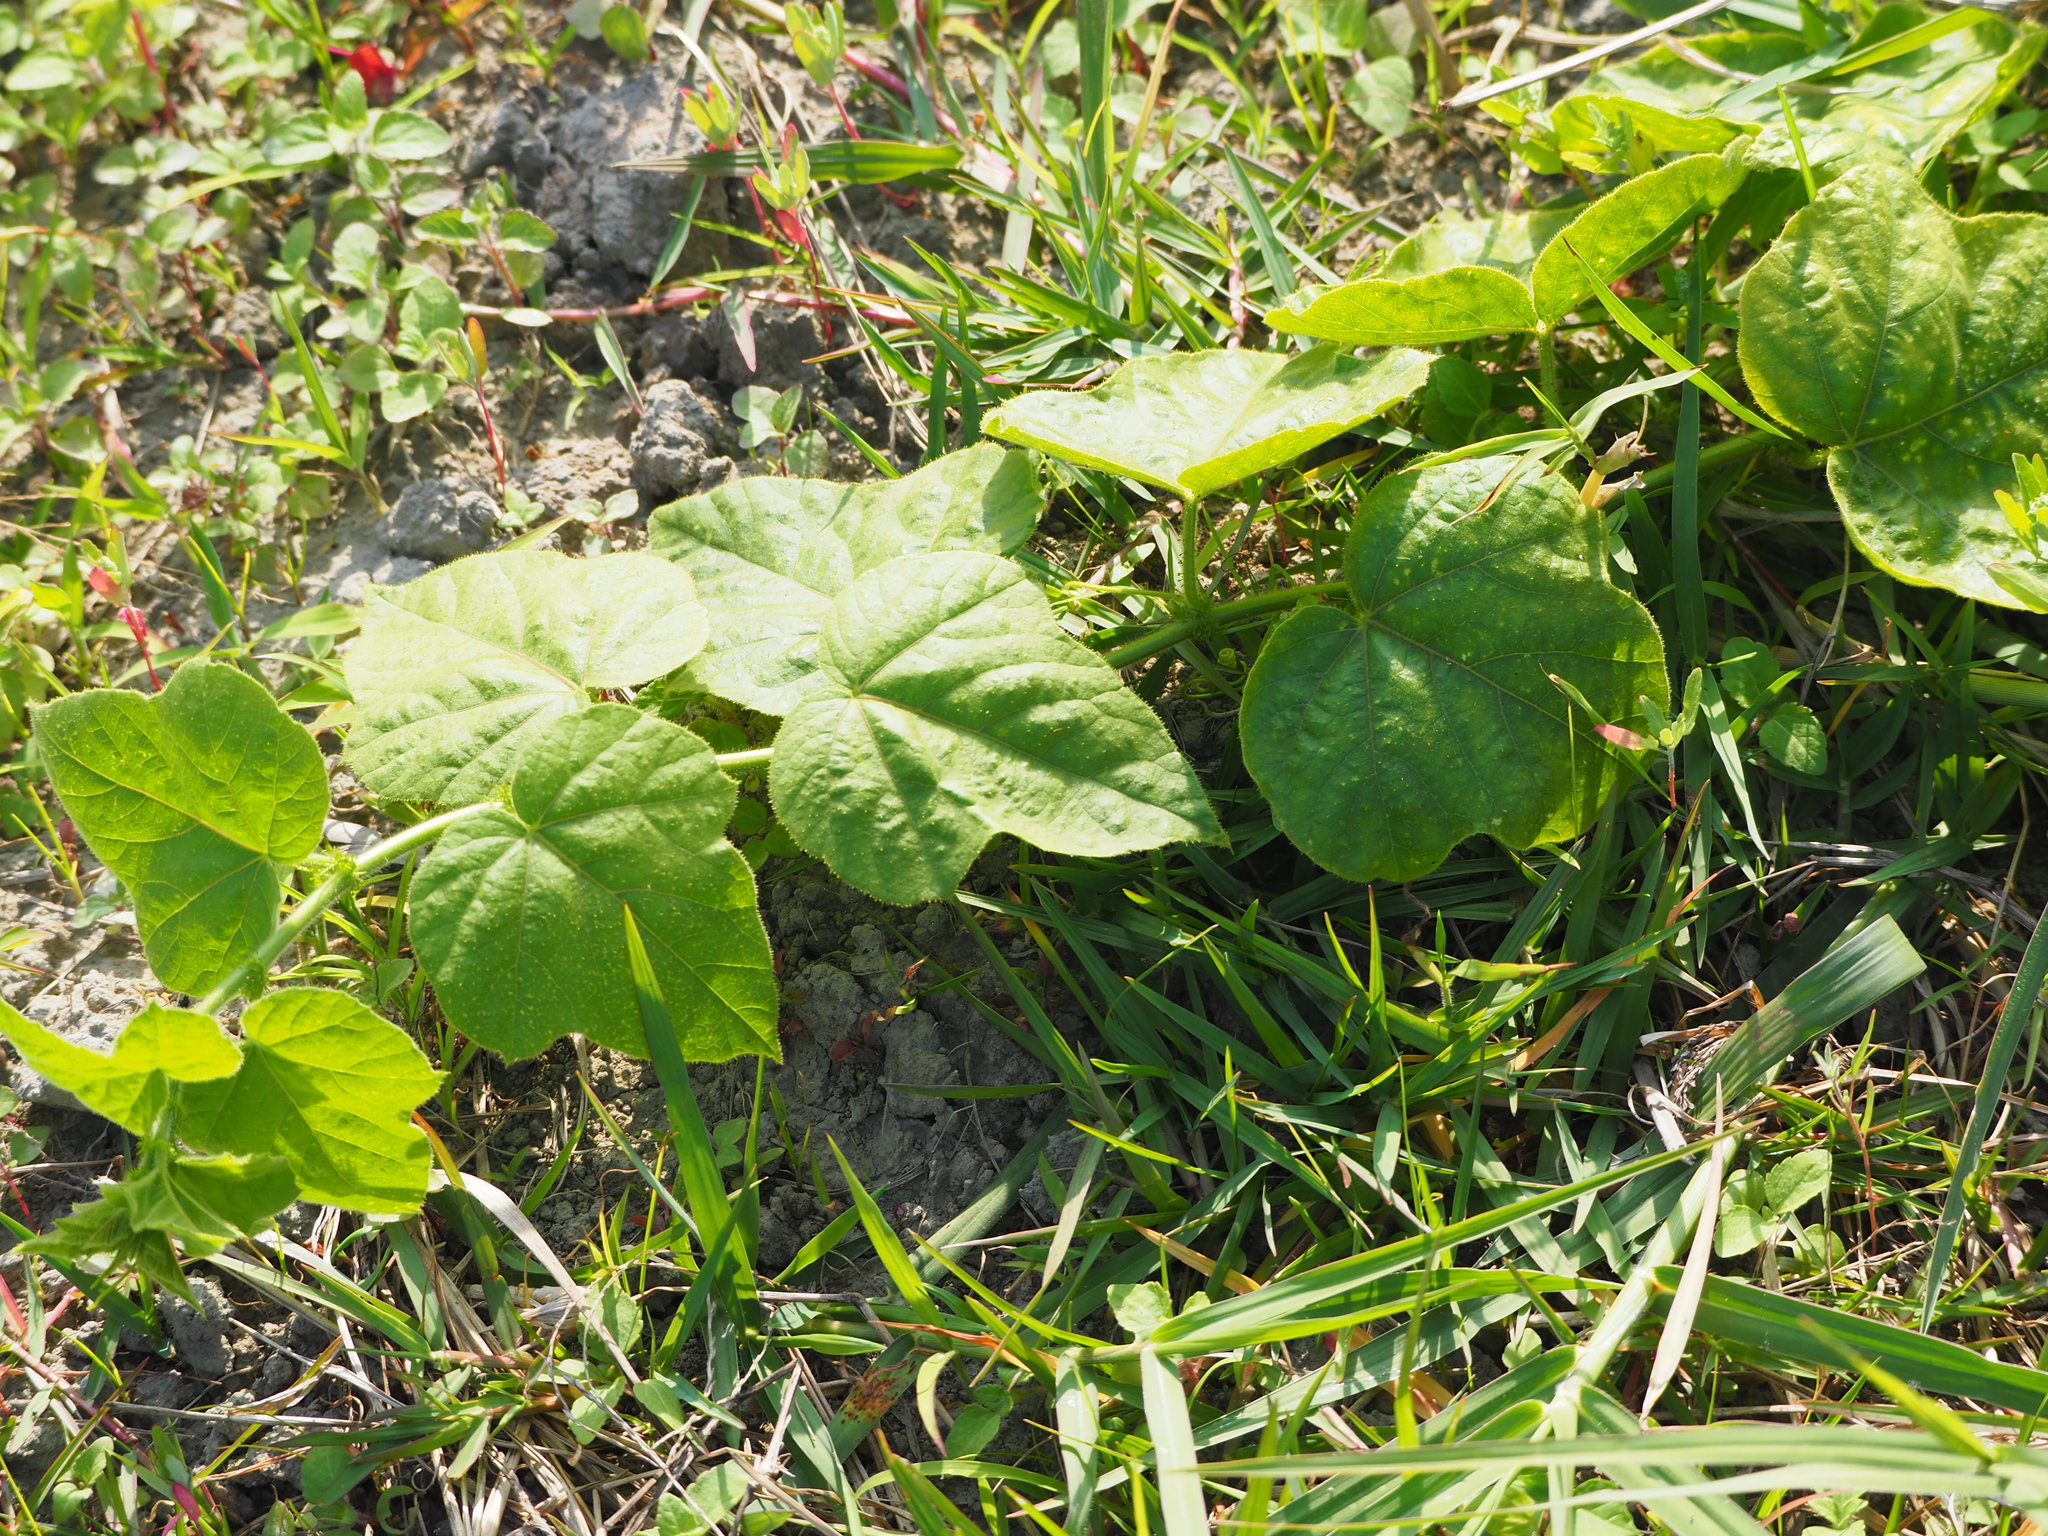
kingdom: Plantae
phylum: Tracheophyta
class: Magnoliopsida
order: Malpighiales
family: Passifloraceae
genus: Passiflora
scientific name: Passiflora vesicaria
